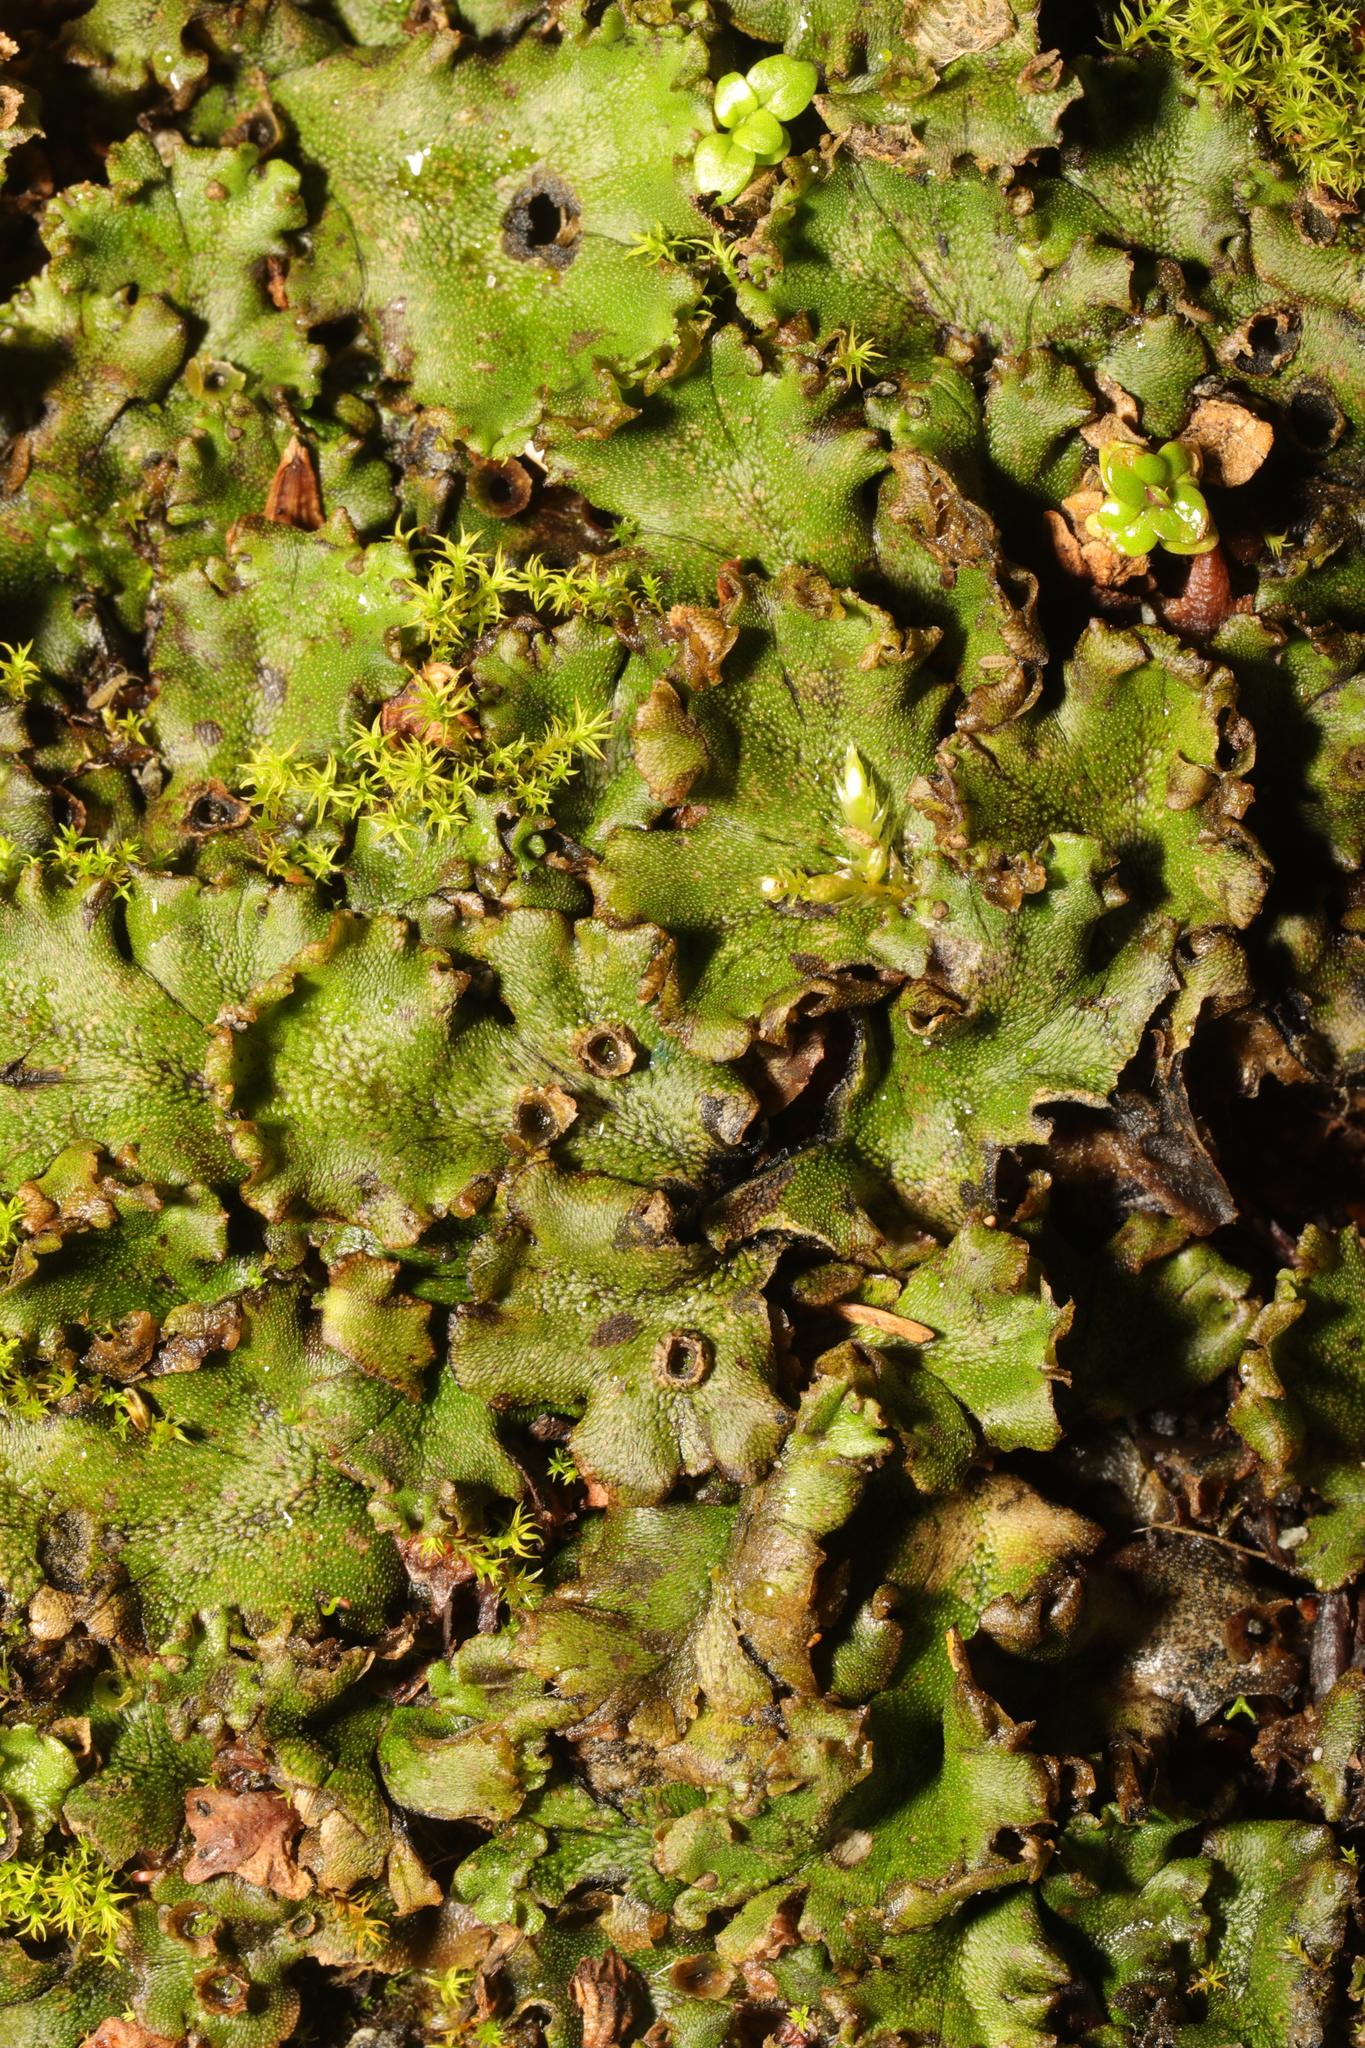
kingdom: Plantae
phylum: Marchantiophyta
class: Marchantiopsida
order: Marchantiales
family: Marchantiaceae
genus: Marchantia
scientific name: Marchantia polymorpha
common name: Common liverwort
